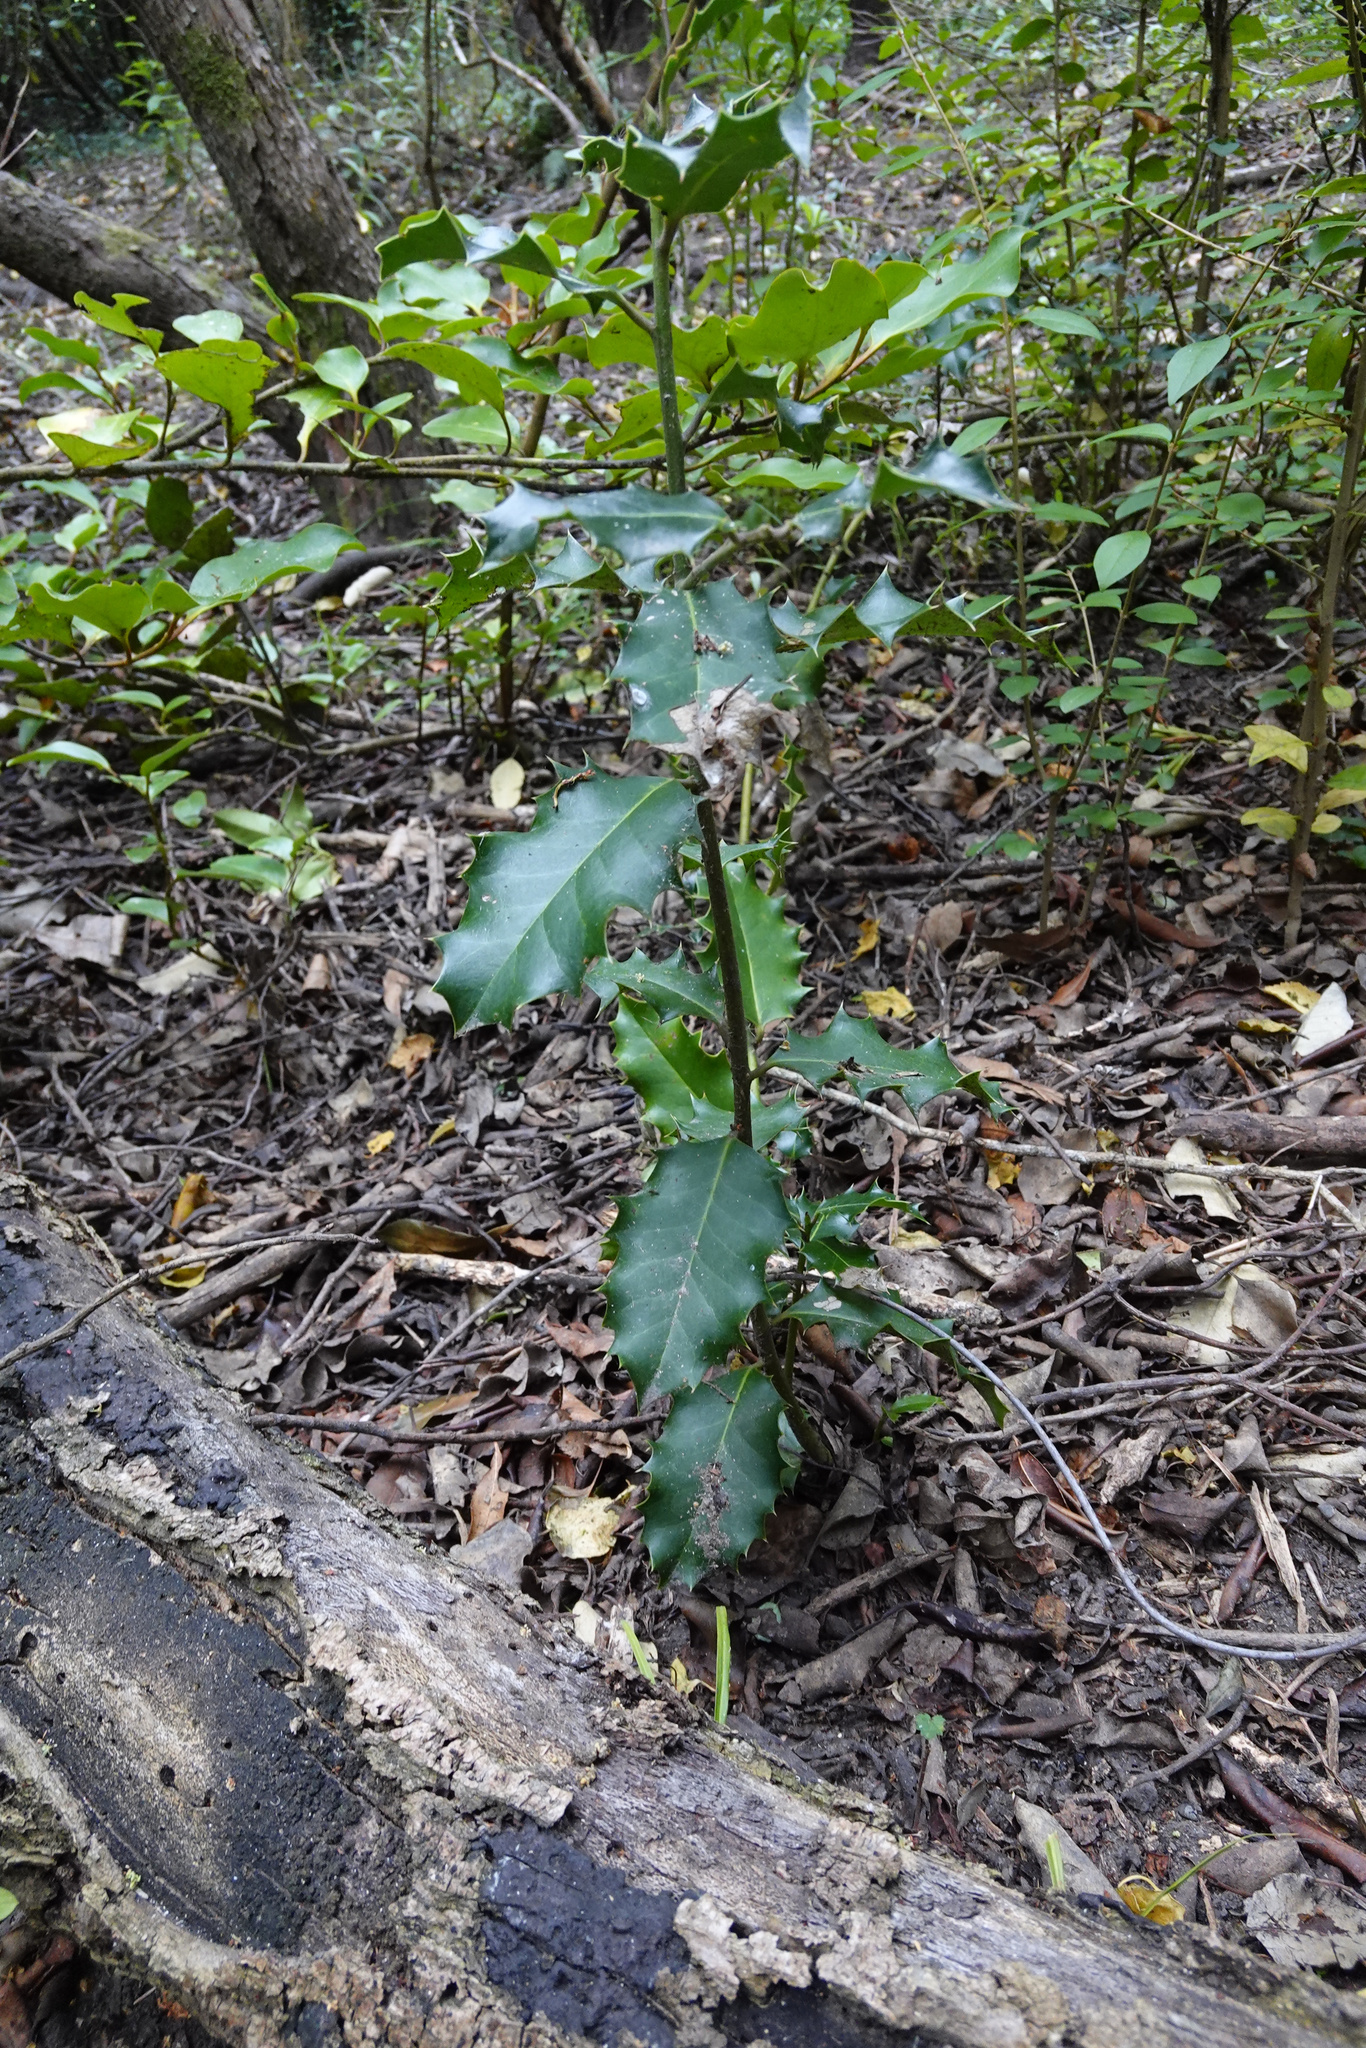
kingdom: Plantae
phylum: Tracheophyta
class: Magnoliopsida
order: Aquifoliales
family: Aquifoliaceae
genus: Ilex
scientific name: Ilex aquifolium
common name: English holly
